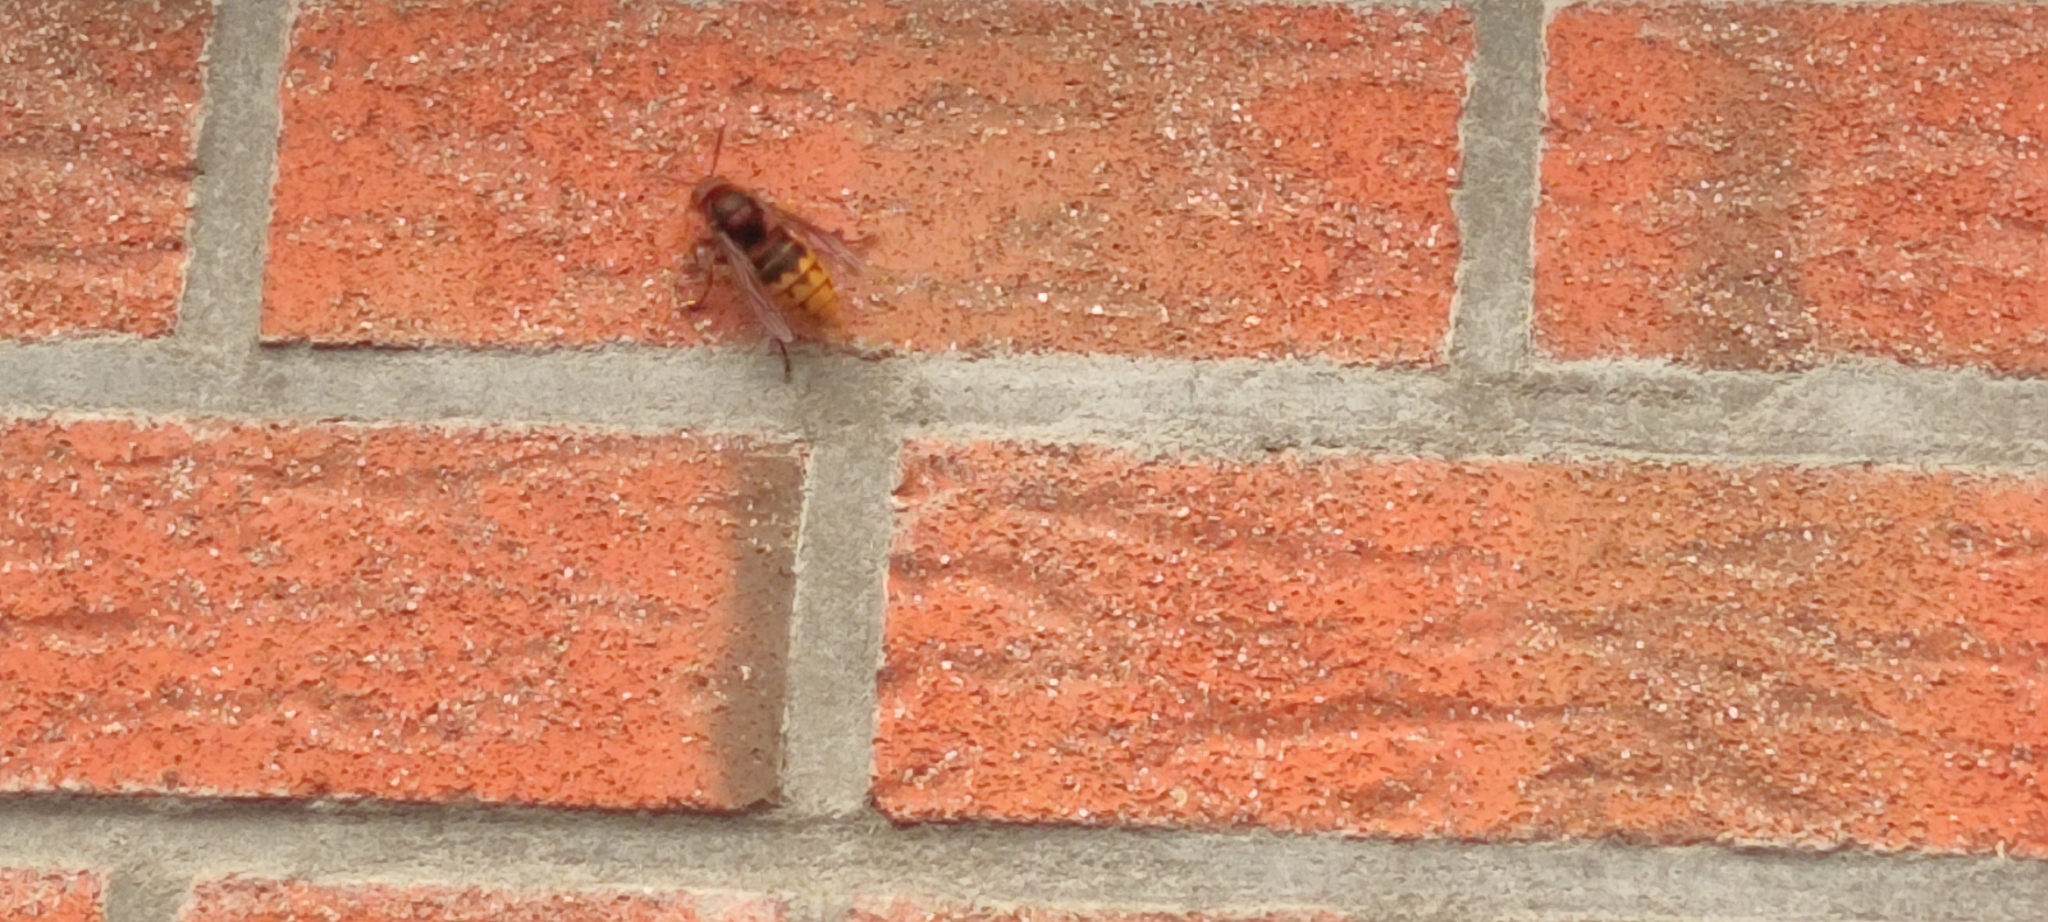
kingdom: Animalia
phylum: Arthropoda
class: Insecta
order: Hymenoptera
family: Vespidae
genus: Vespa
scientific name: Vespa crabro
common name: Hornet
